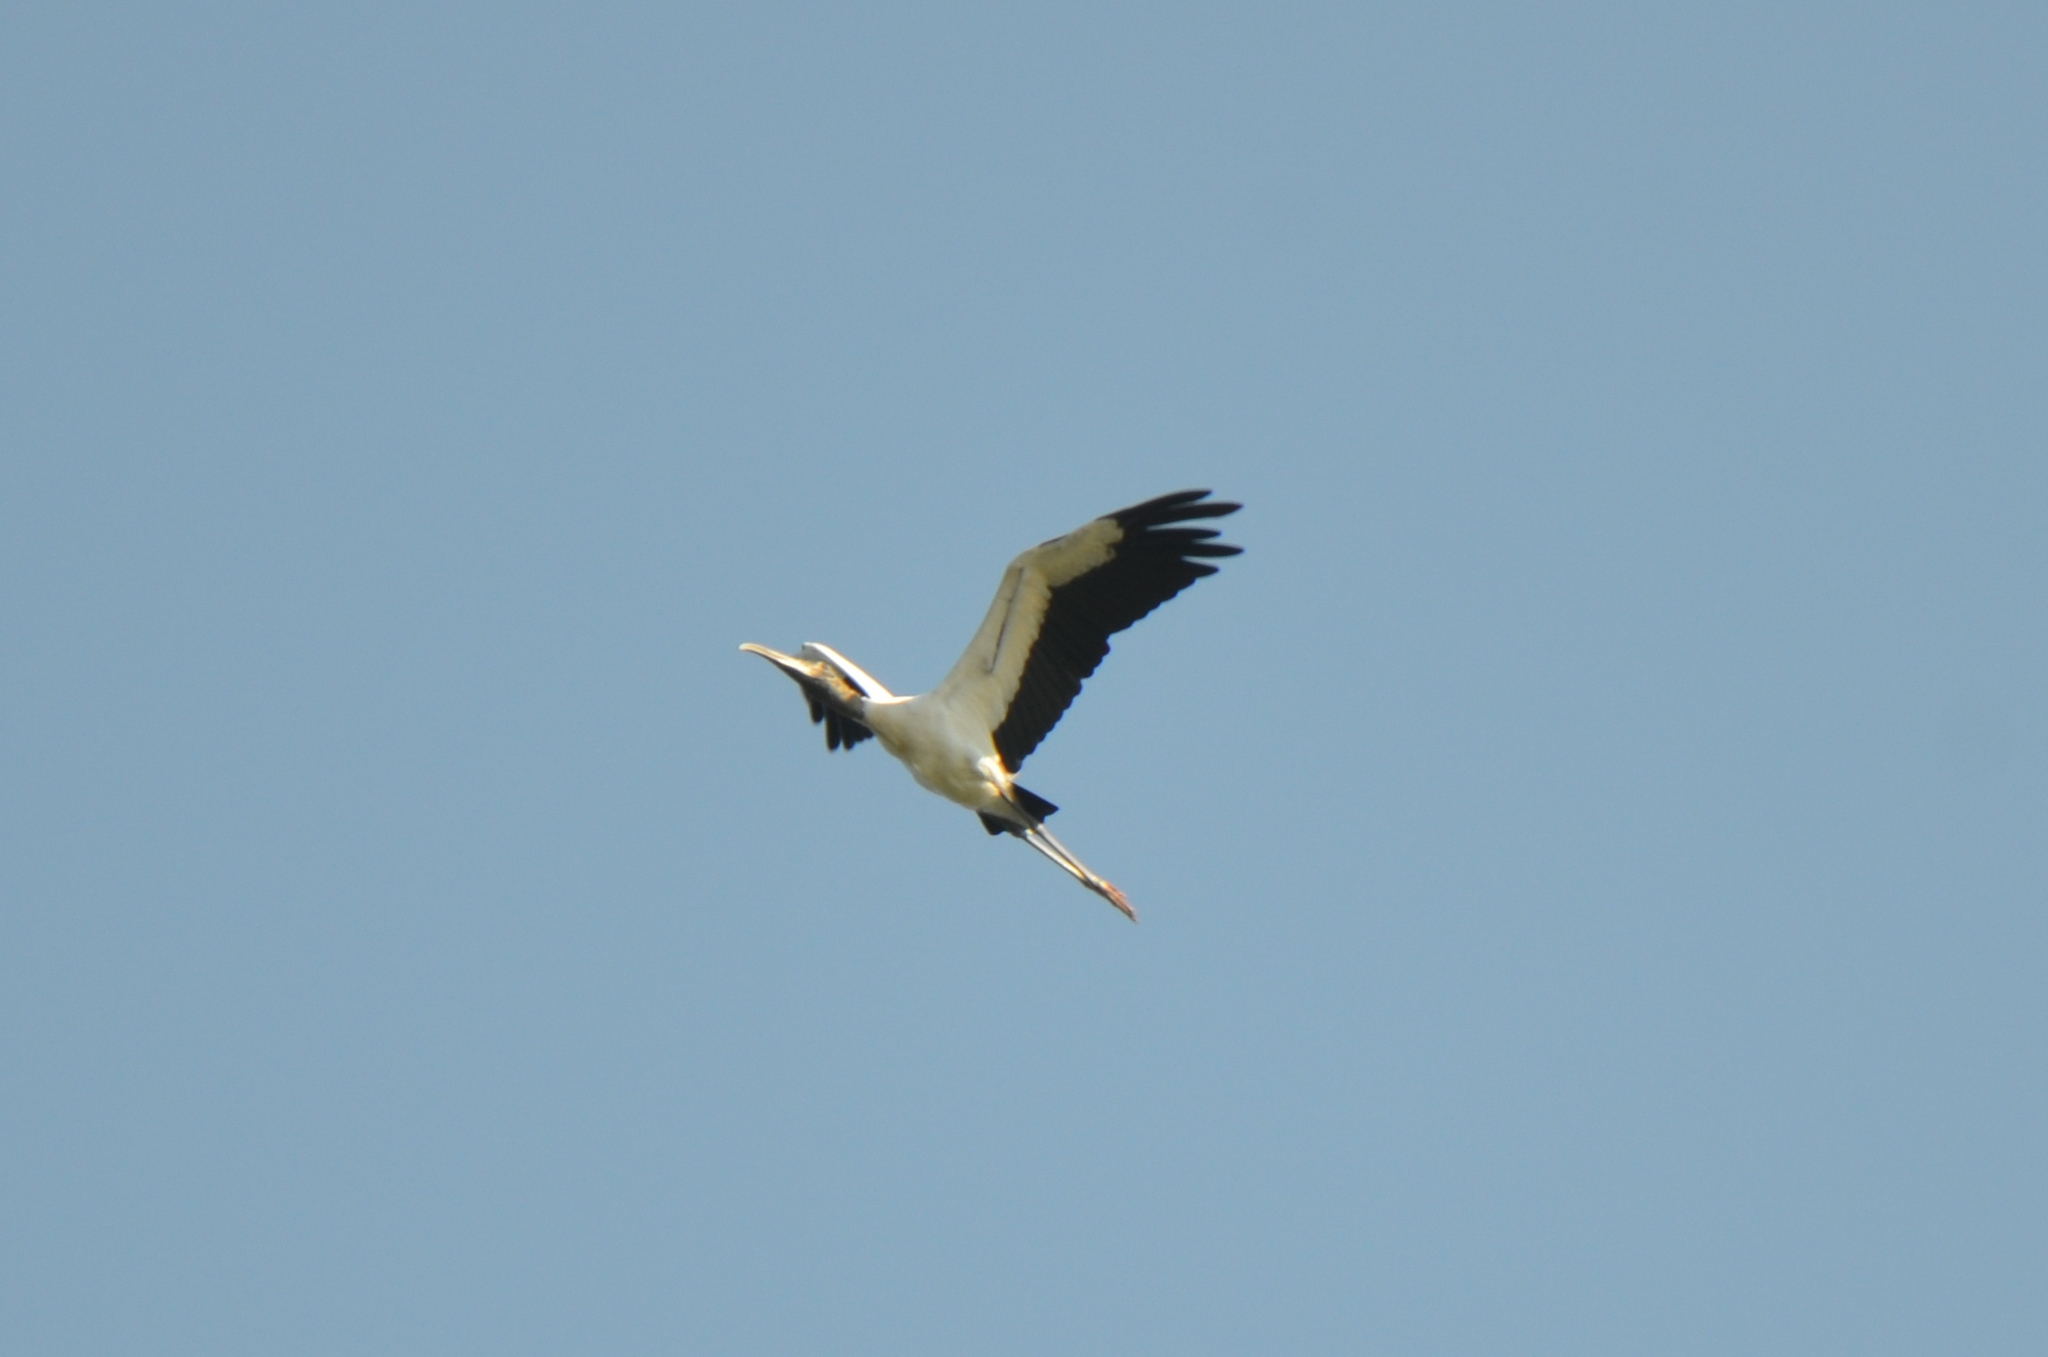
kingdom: Animalia
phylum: Chordata
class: Aves
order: Ciconiiformes
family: Ciconiidae
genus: Mycteria
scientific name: Mycteria americana
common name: Wood stork
